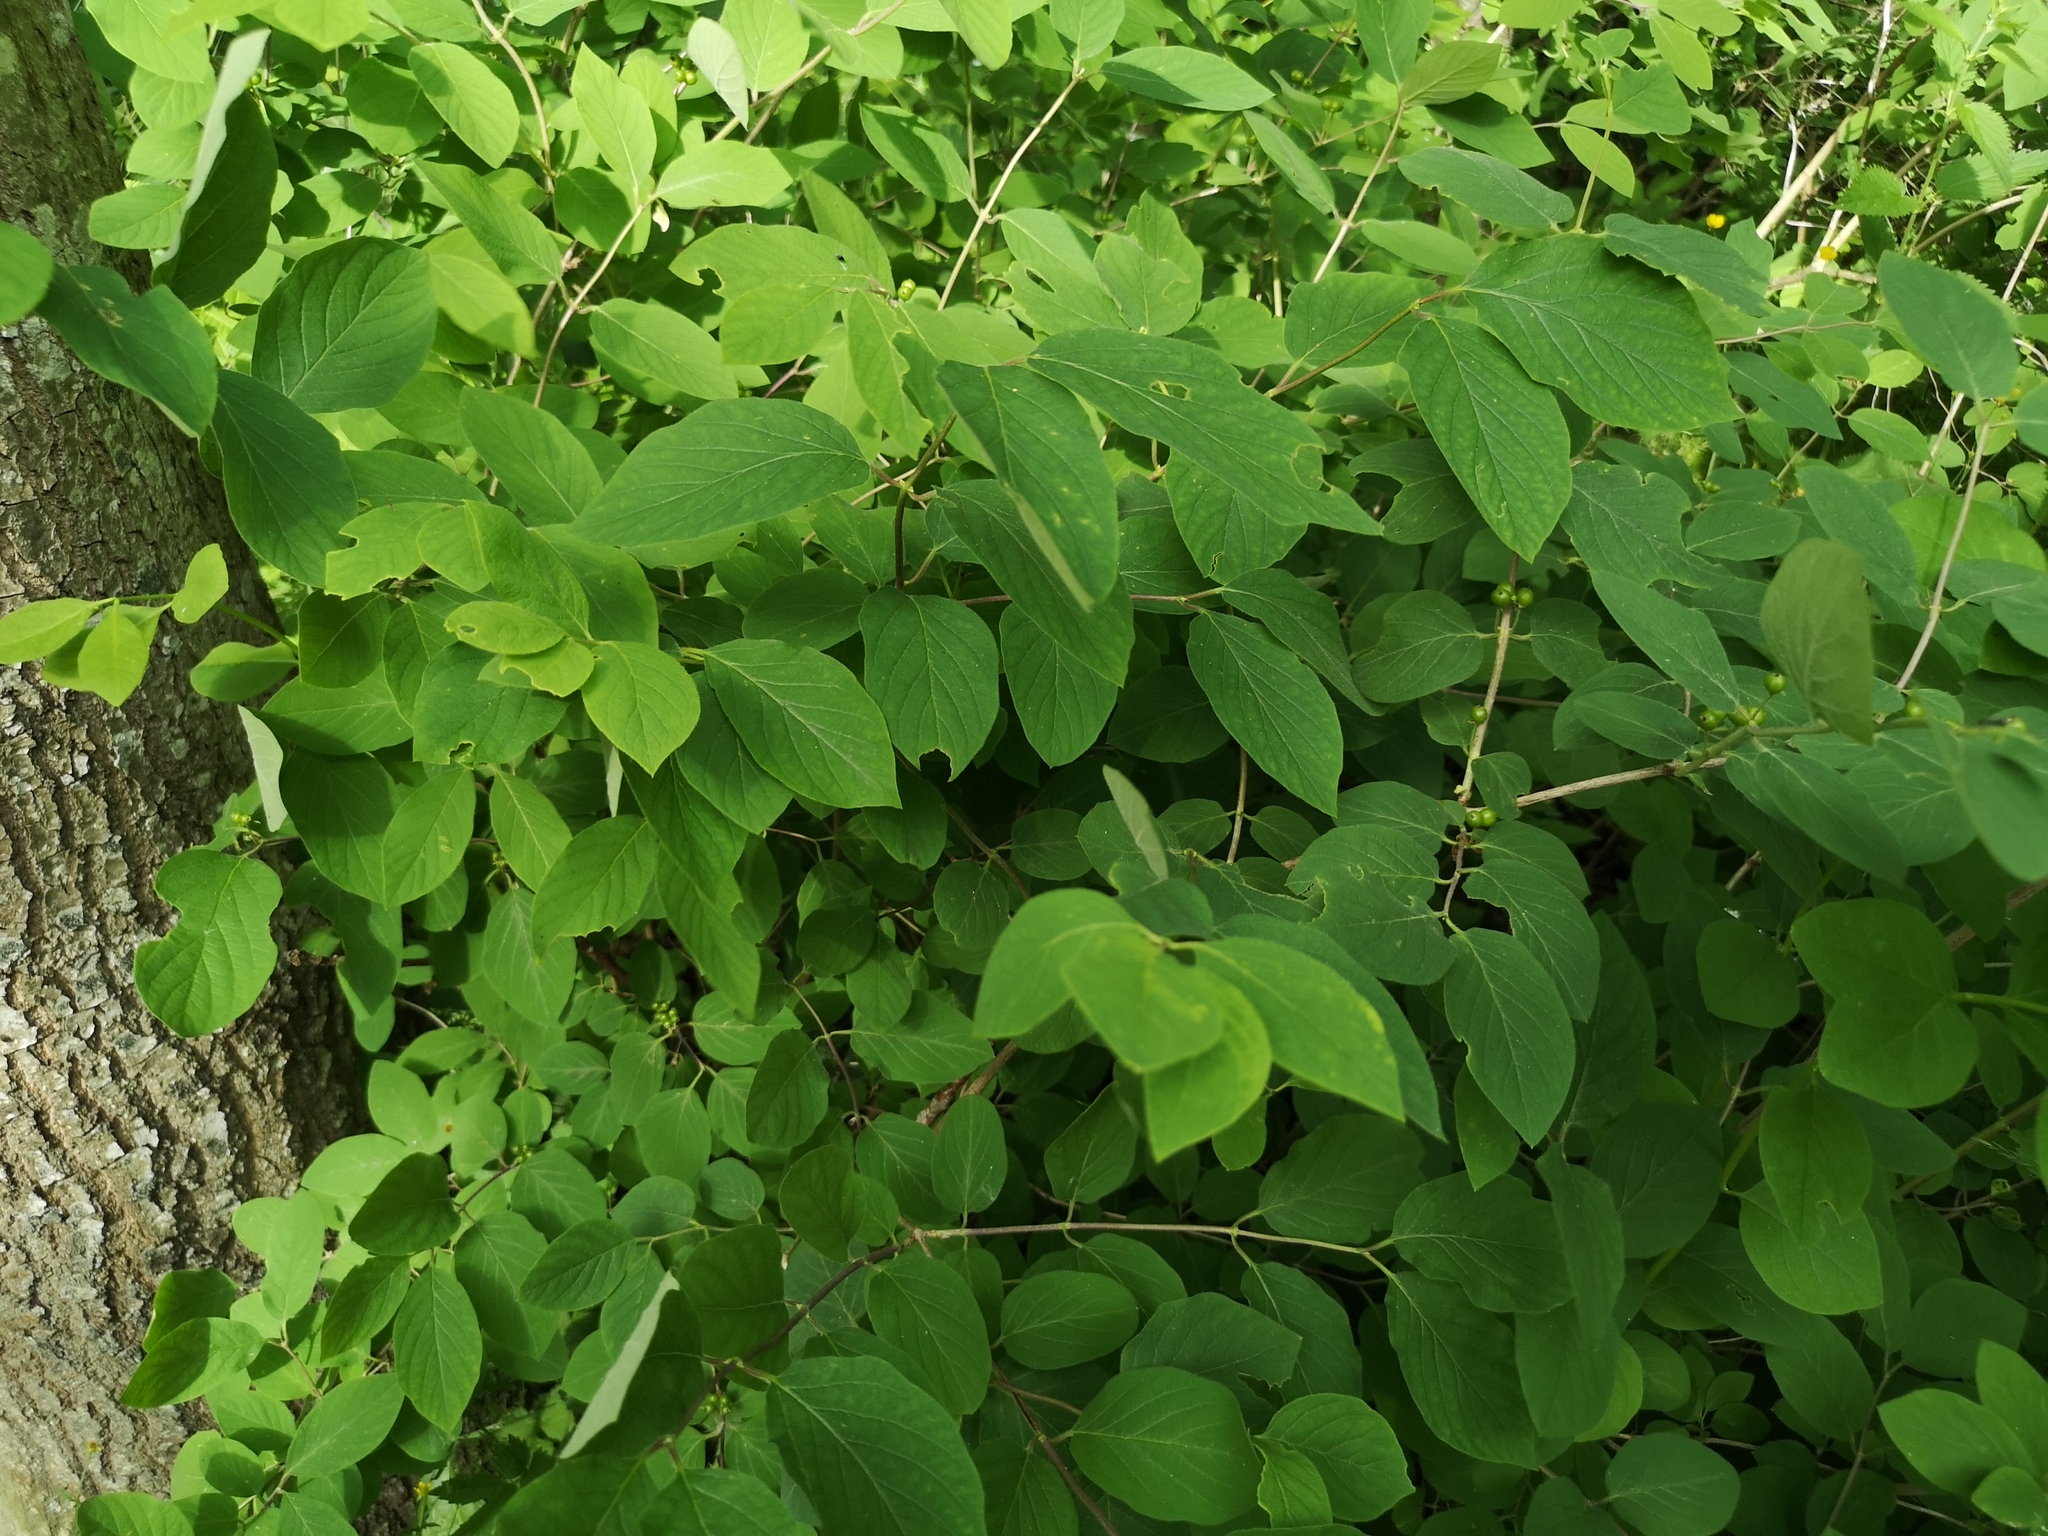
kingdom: Plantae
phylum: Tracheophyta
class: Magnoliopsida
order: Dipsacales
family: Caprifoliaceae
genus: Lonicera
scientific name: Lonicera xylosteum
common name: Fly honeysuckle
